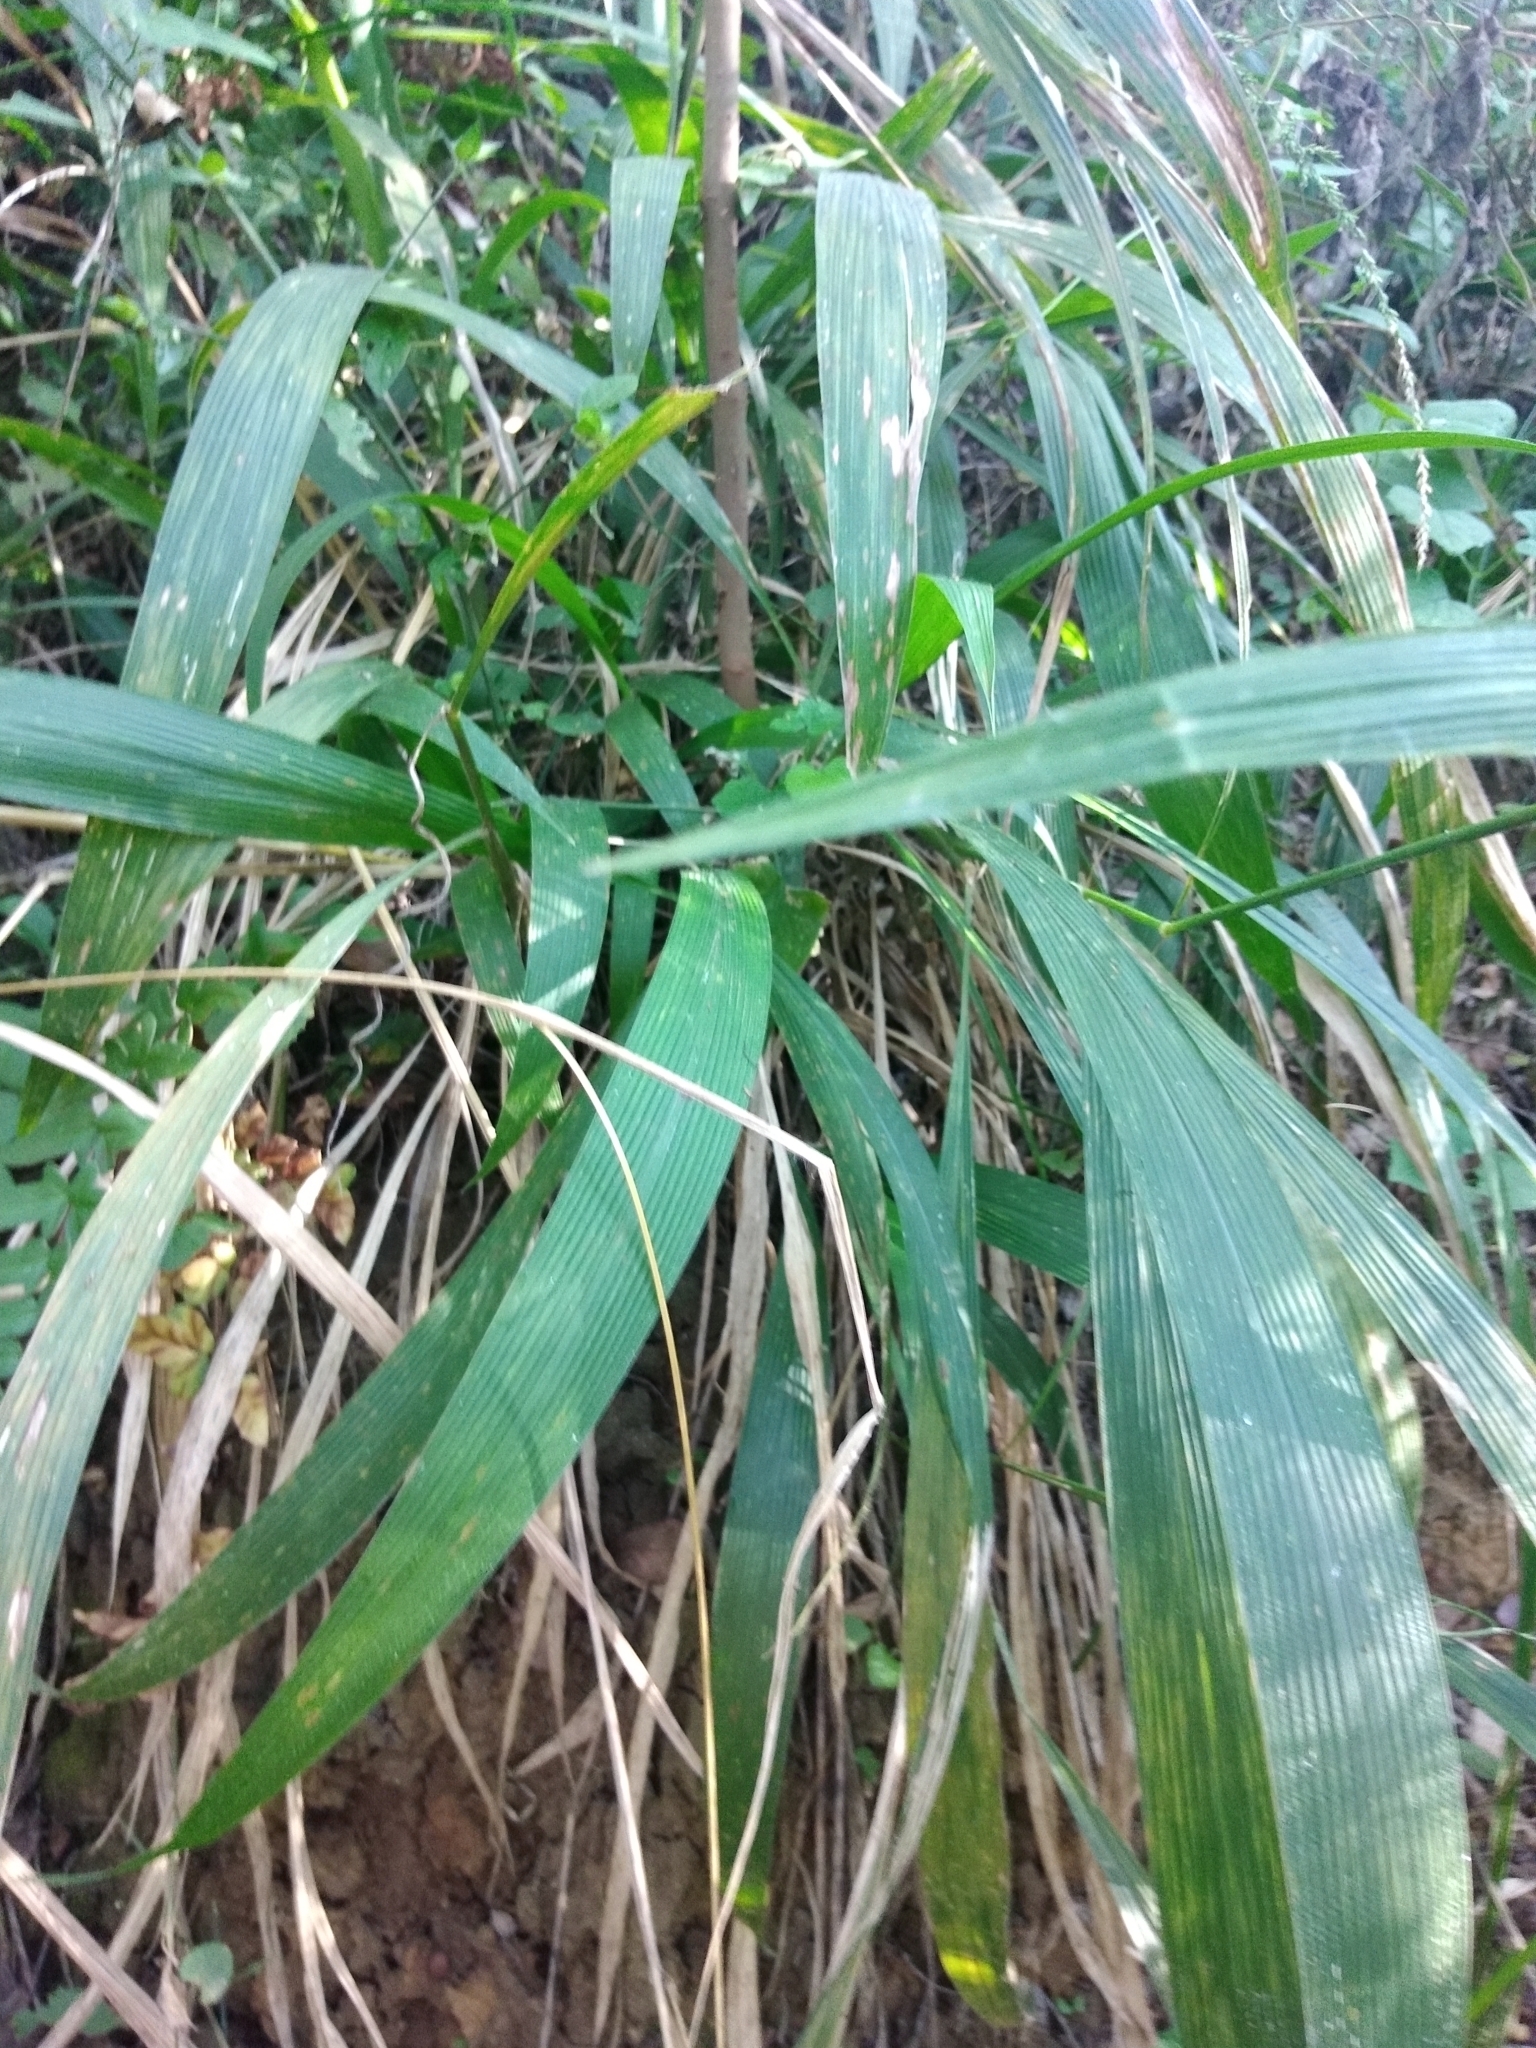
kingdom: Plantae
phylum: Tracheophyta
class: Liliopsida
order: Poales
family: Poaceae
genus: Setaria
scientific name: Setaria megaphylla
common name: Bigleaf bristlegrass
